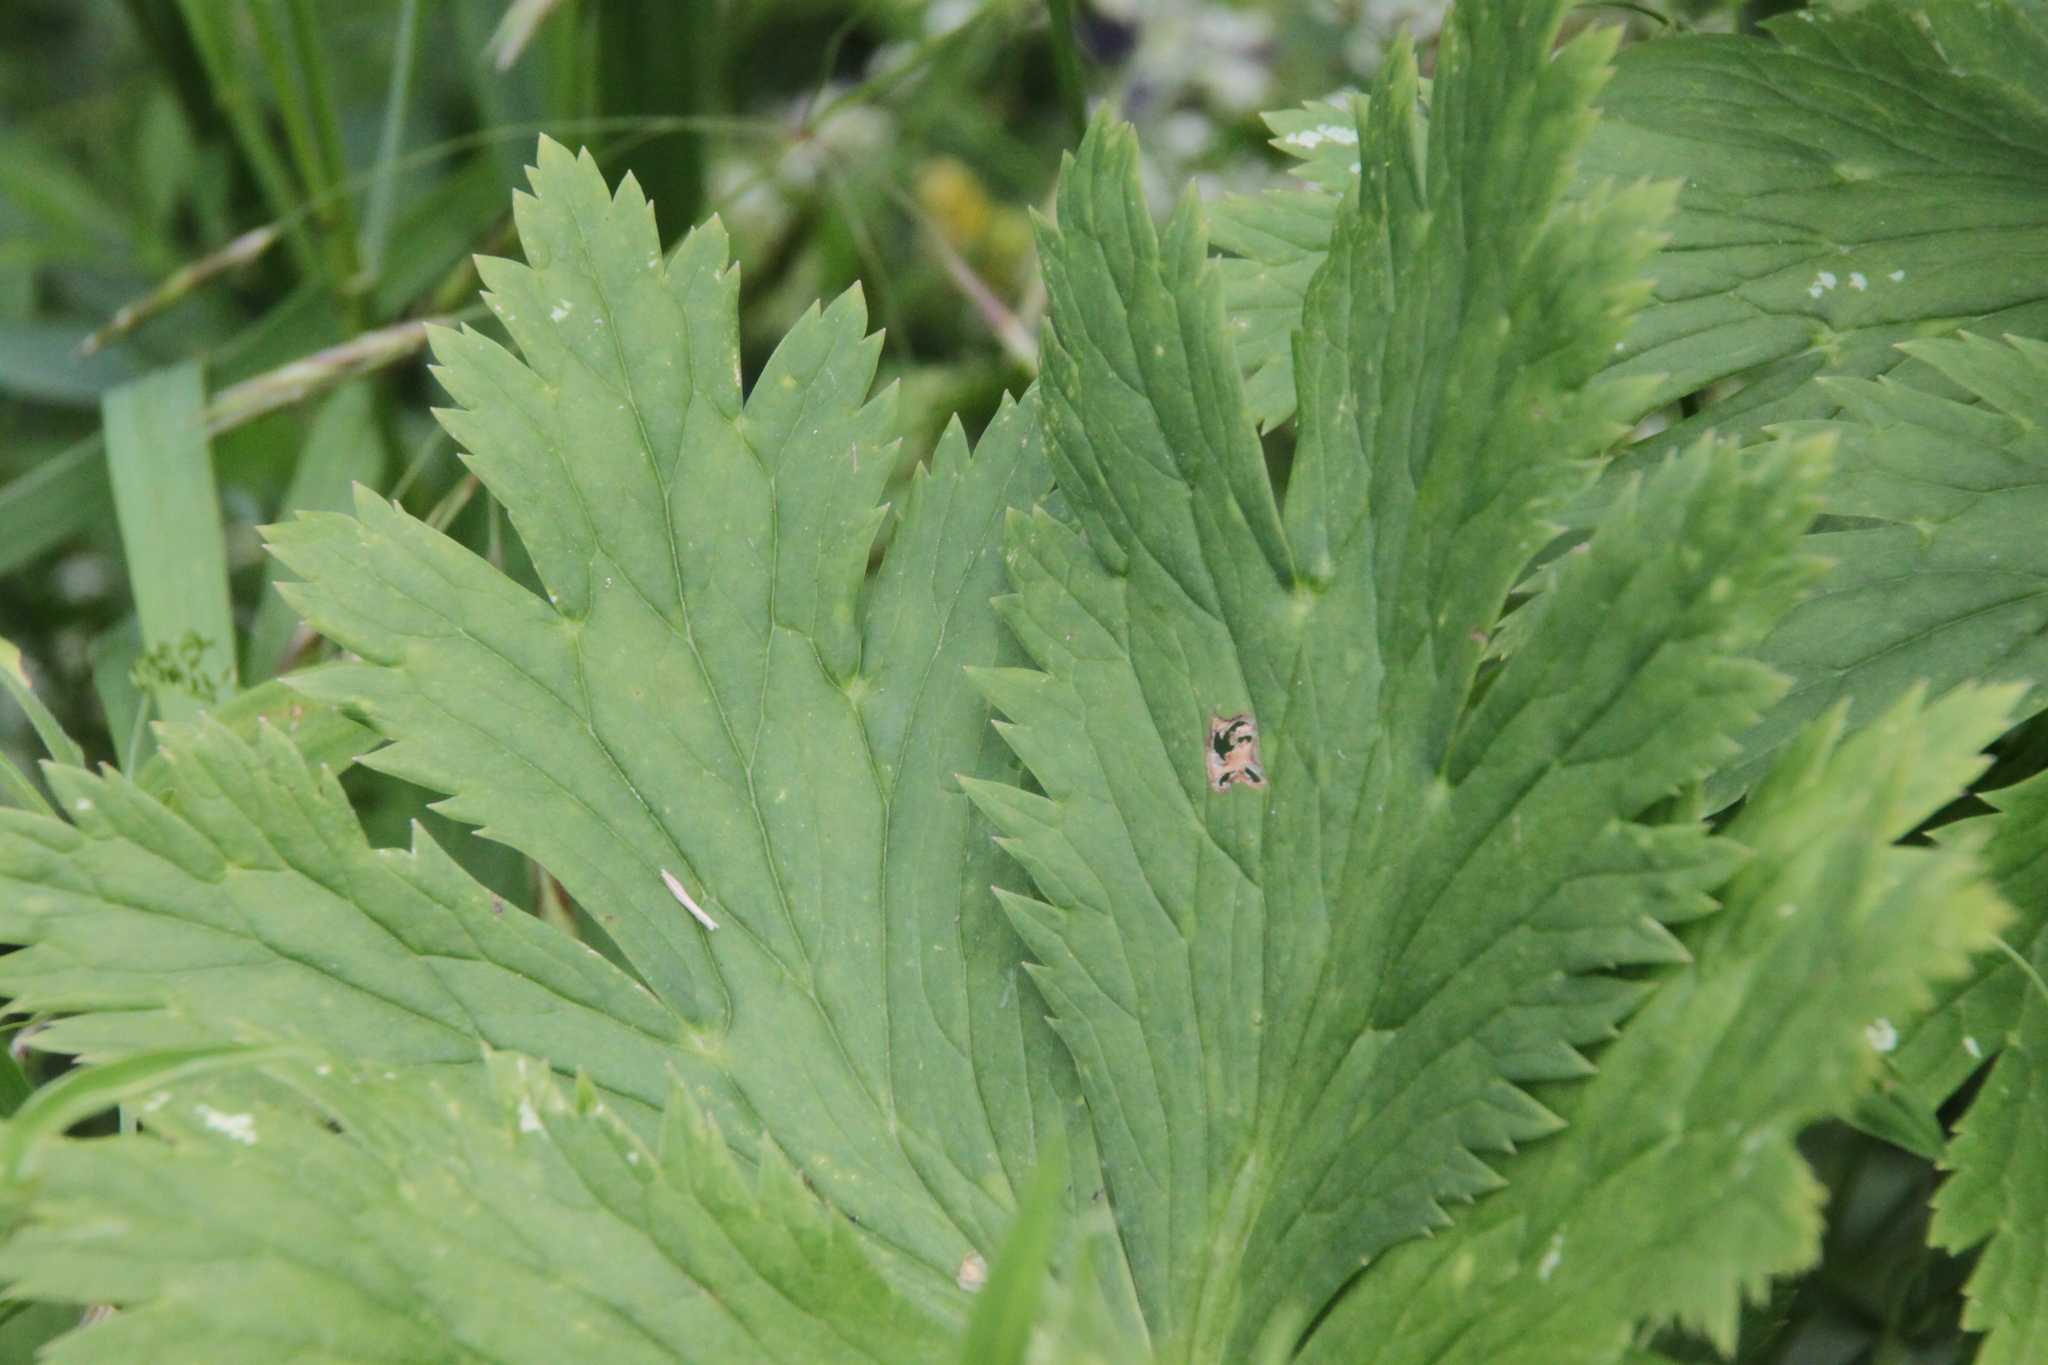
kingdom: Plantae
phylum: Tracheophyta
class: Magnoliopsida
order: Ranunculales
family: Ranunculaceae
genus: Trollius
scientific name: Trollius europaeus
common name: European globeflower
